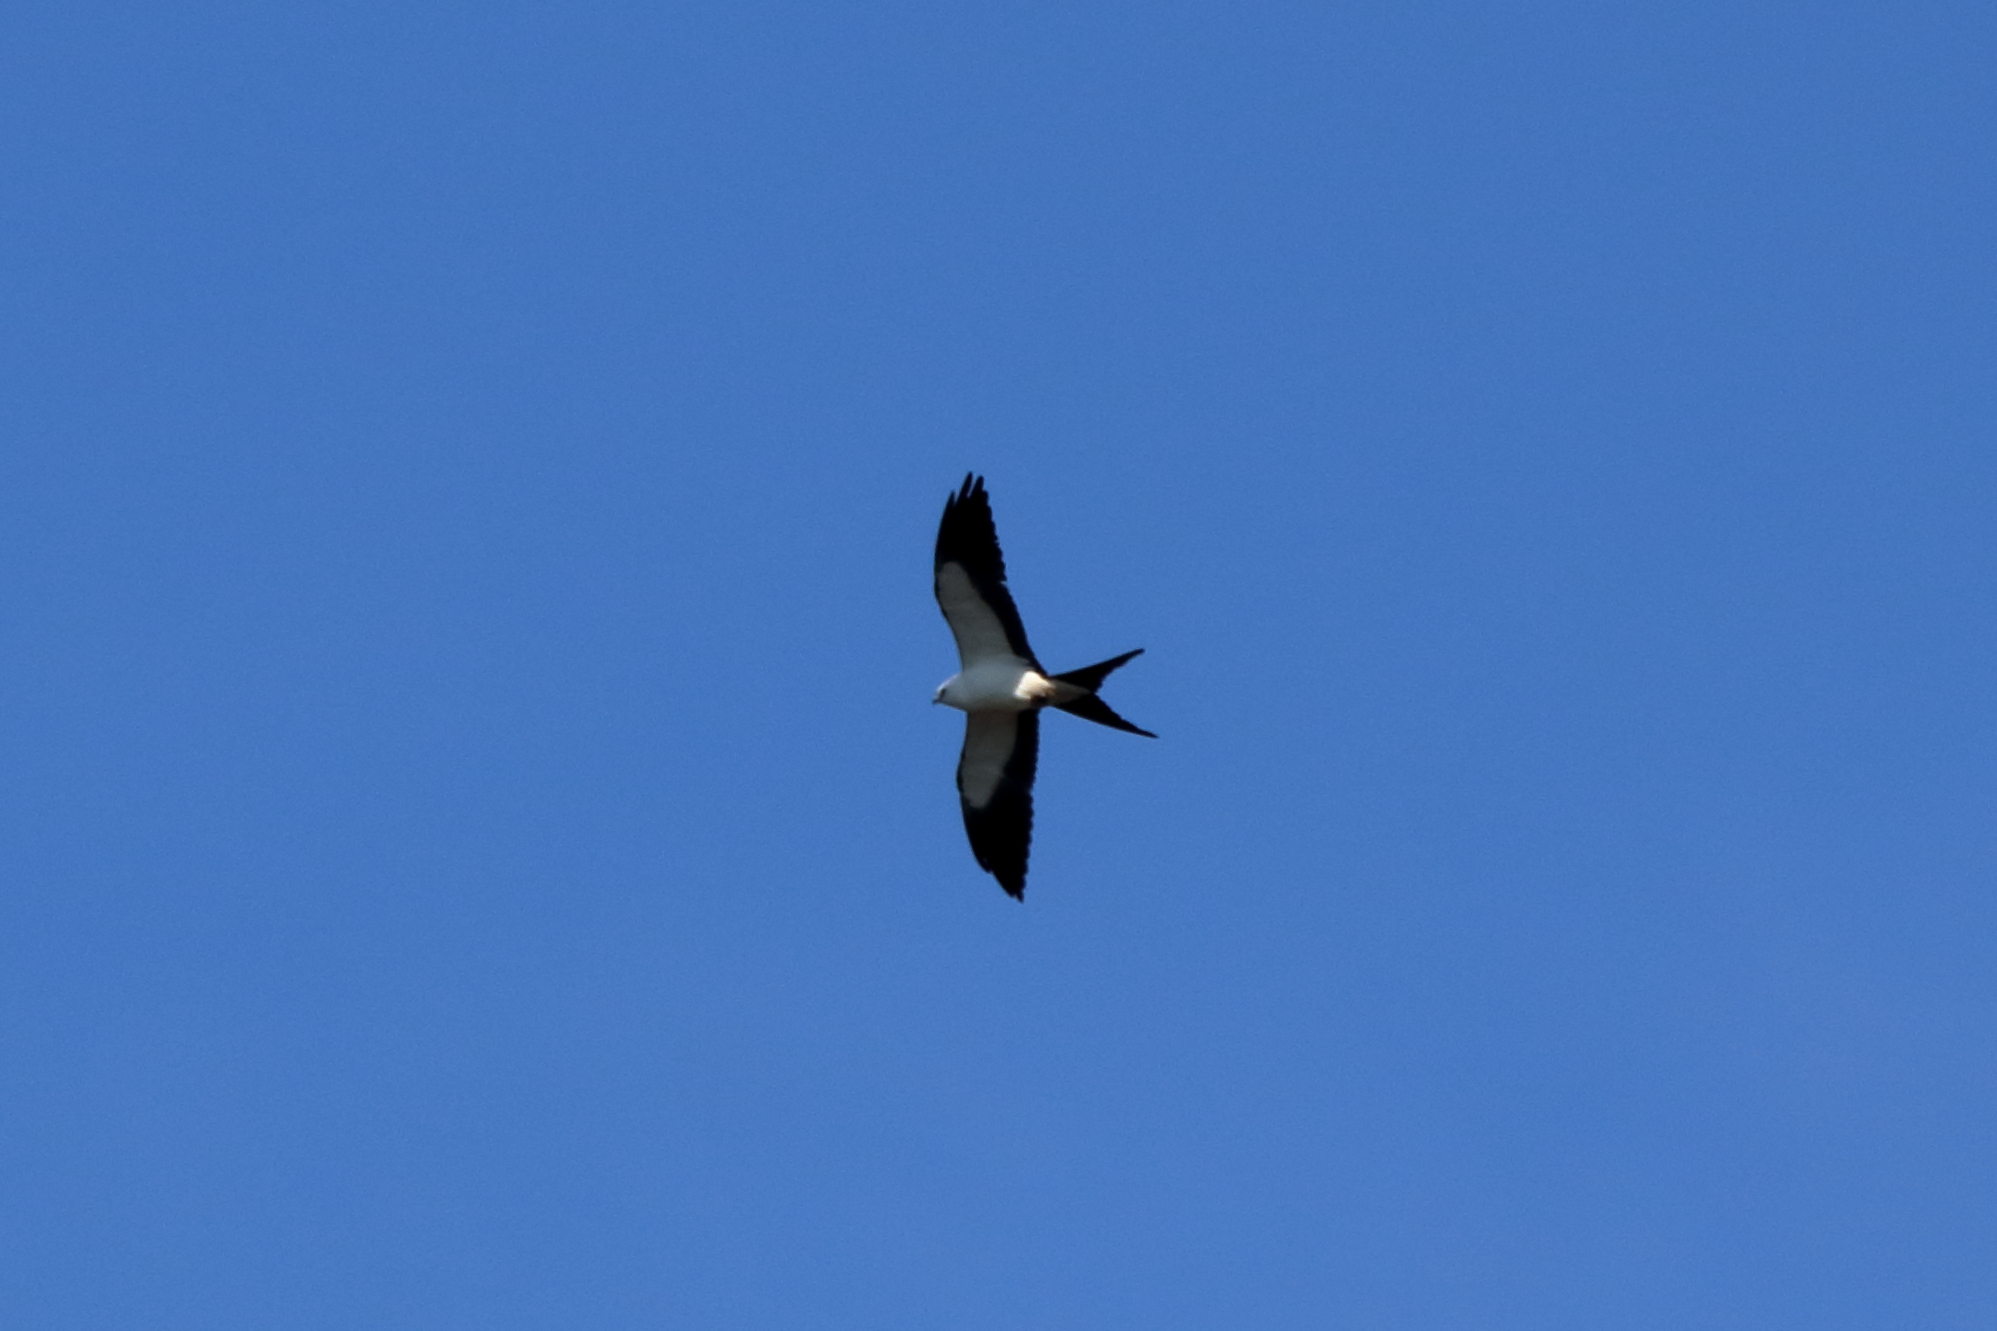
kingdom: Animalia
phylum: Chordata
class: Aves
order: Accipitriformes
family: Accipitridae
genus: Elanoides
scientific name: Elanoides forficatus
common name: Swallow-tailed kite
